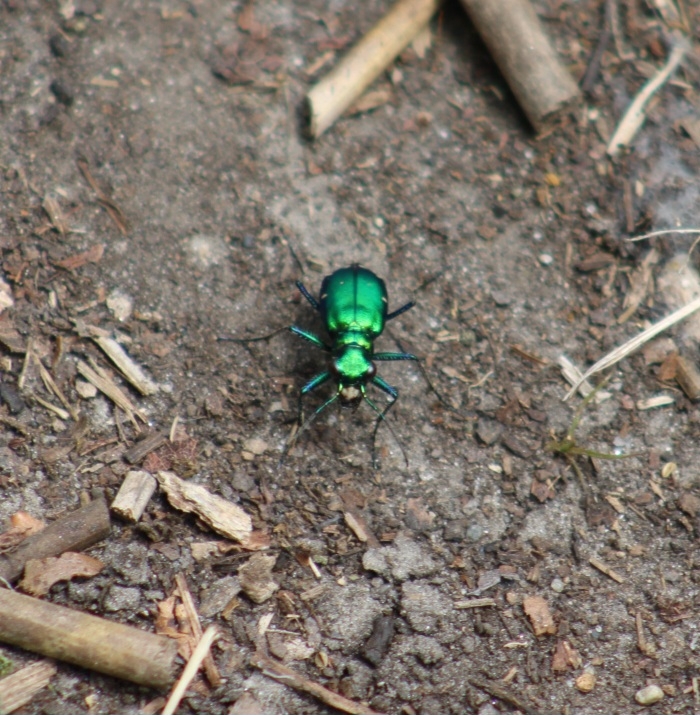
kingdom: Animalia
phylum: Arthropoda
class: Insecta
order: Coleoptera
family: Carabidae
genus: Cicindela
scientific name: Cicindela sexguttata
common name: Six-spotted tiger beetle
